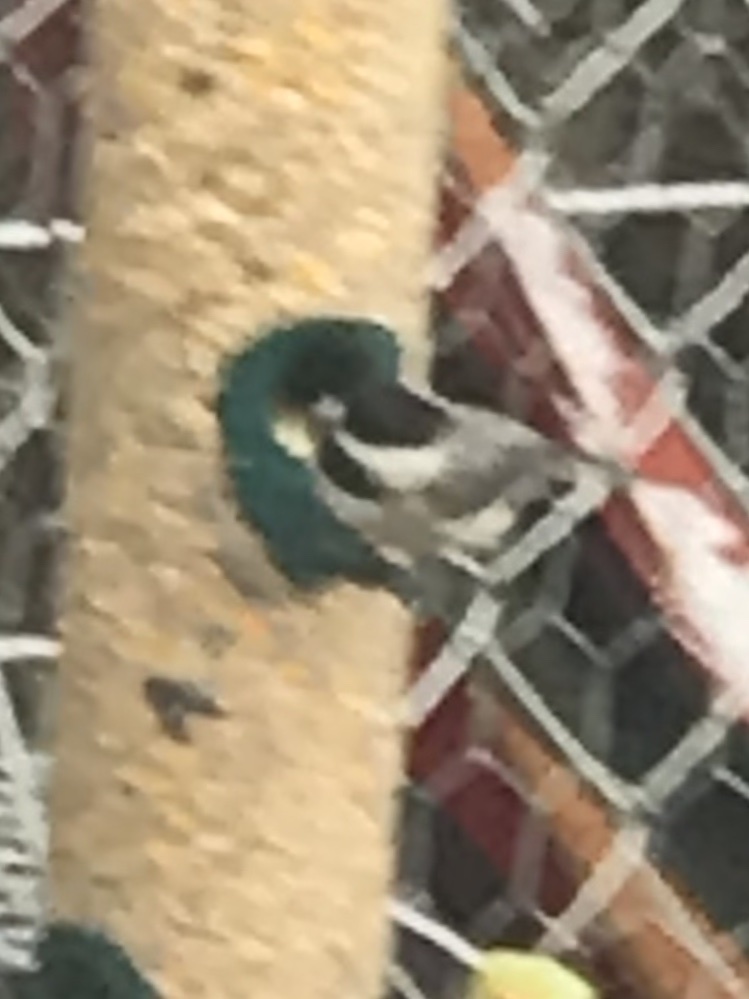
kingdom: Animalia
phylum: Chordata
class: Aves
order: Passeriformes
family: Paridae
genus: Poecile
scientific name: Poecile carolinensis
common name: Carolina chickadee
